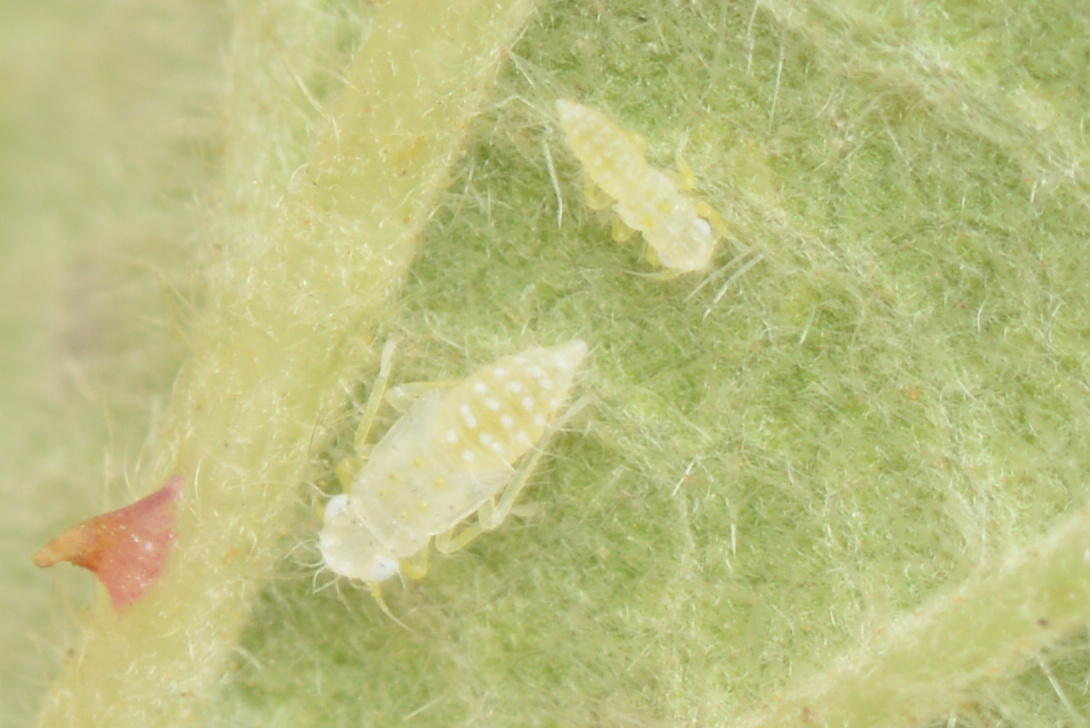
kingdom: Animalia
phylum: Arthropoda
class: Insecta
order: Hemiptera
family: Cicadellidae
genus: Ribautiana
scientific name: Ribautiana tenerrima
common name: Bramble leafhopper
